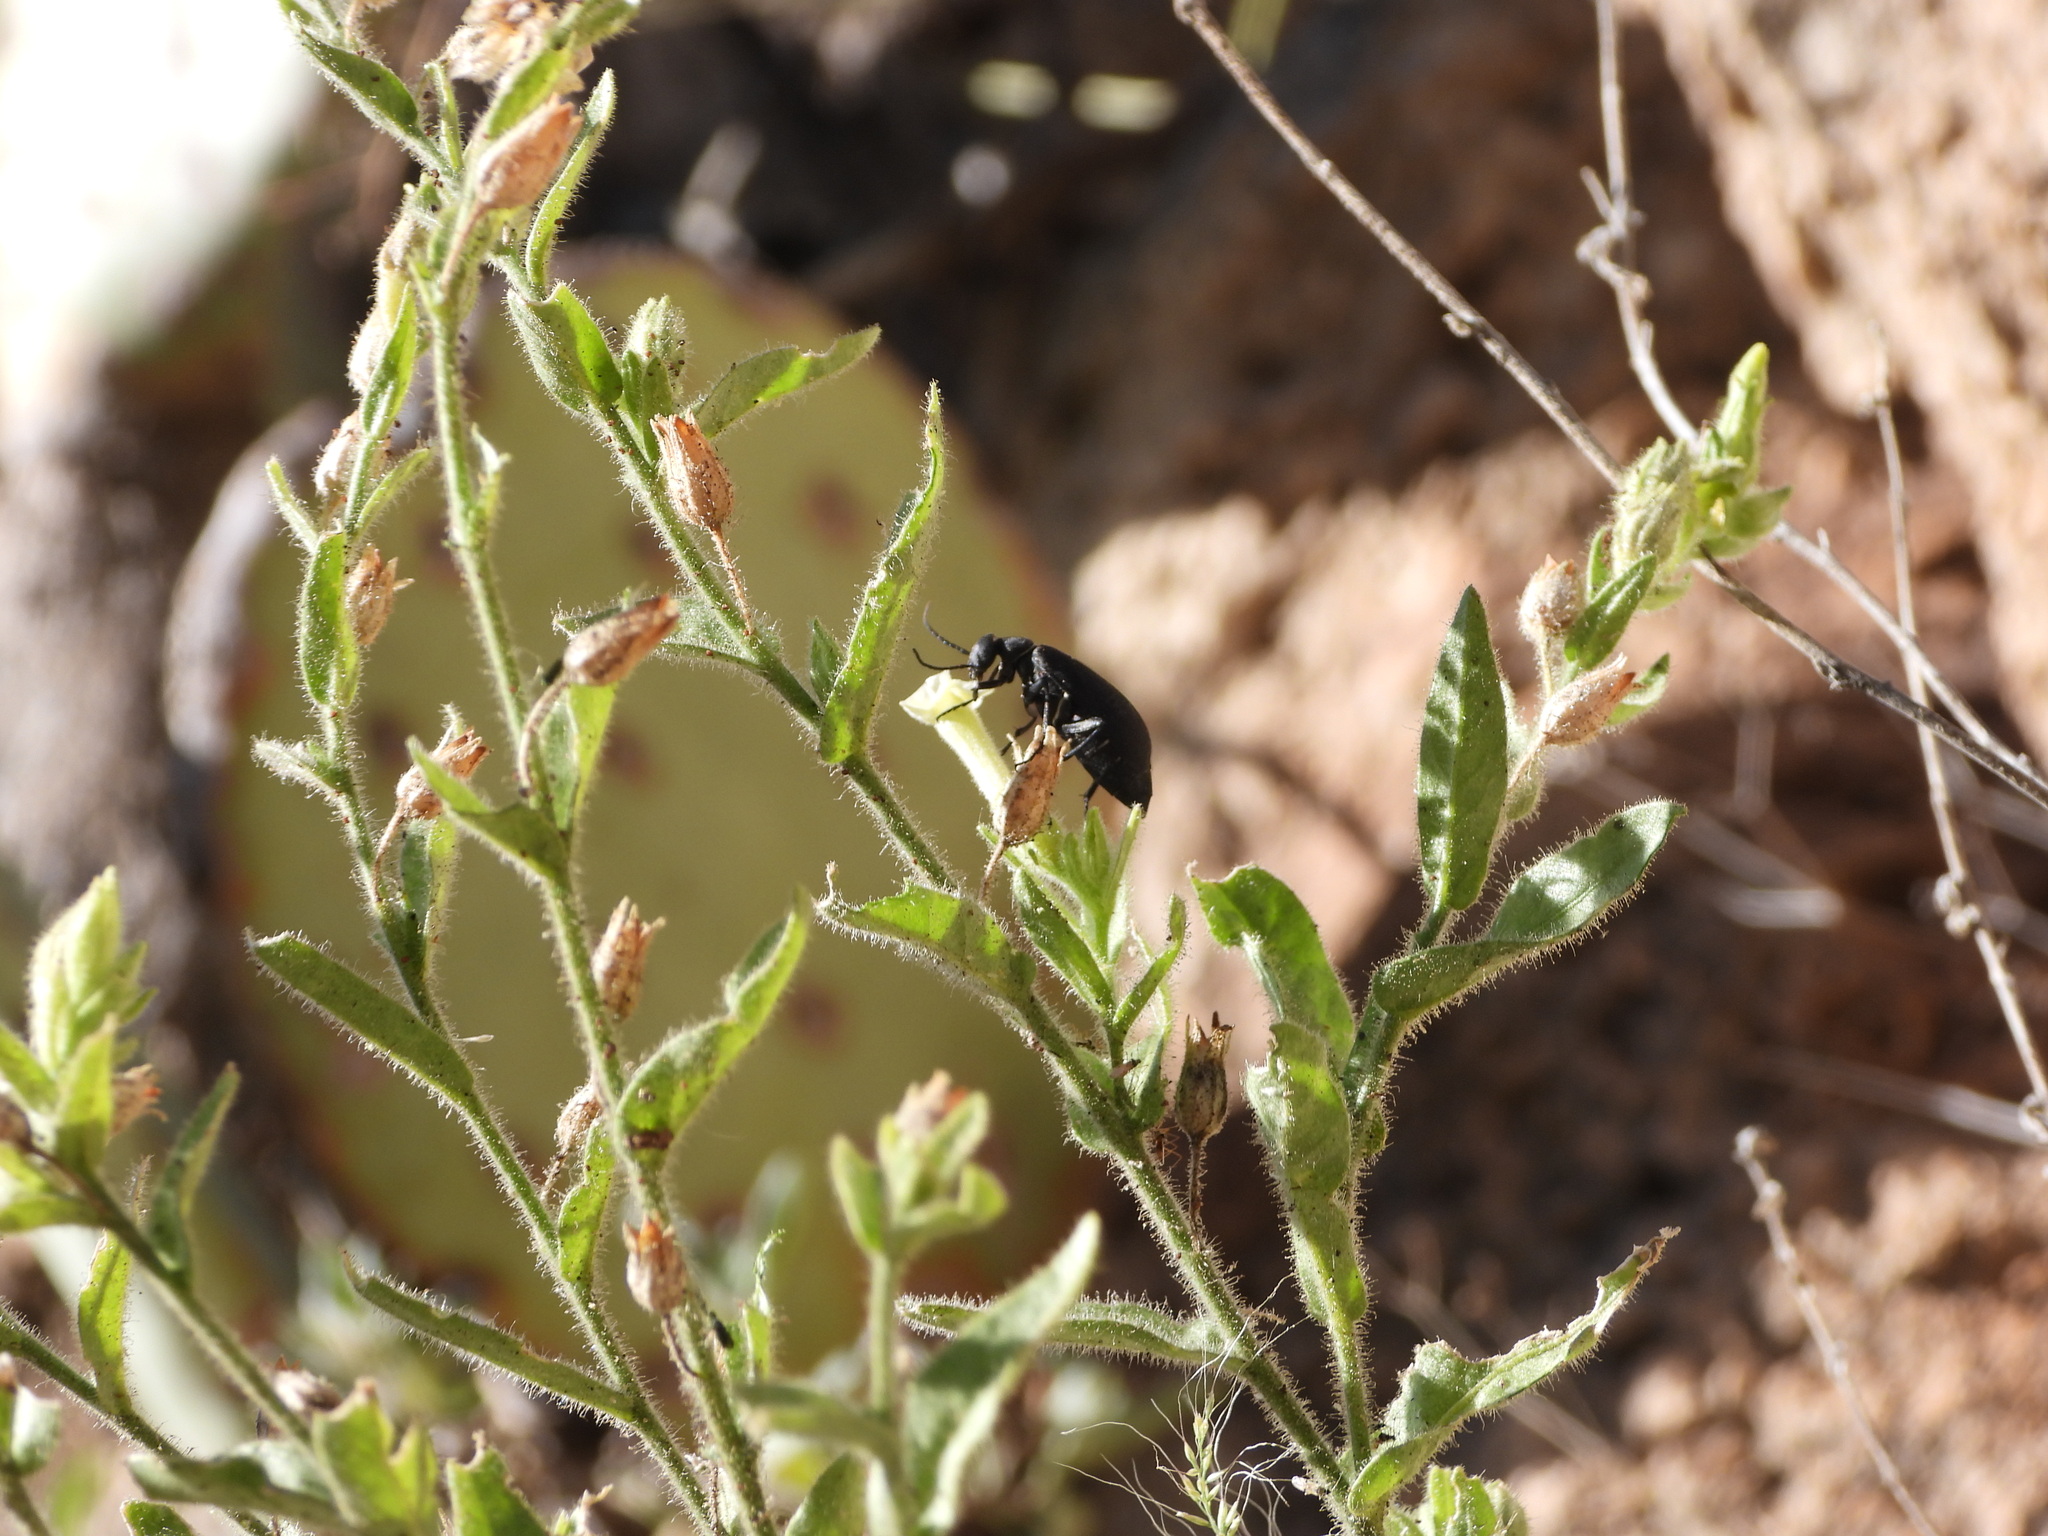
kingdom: Plantae
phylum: Tracheophyta
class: Magnoliopsida
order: Solanales
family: Solanaceae
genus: Nicotiana
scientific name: Nicotiana obtusifolia
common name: Desert tobacco
